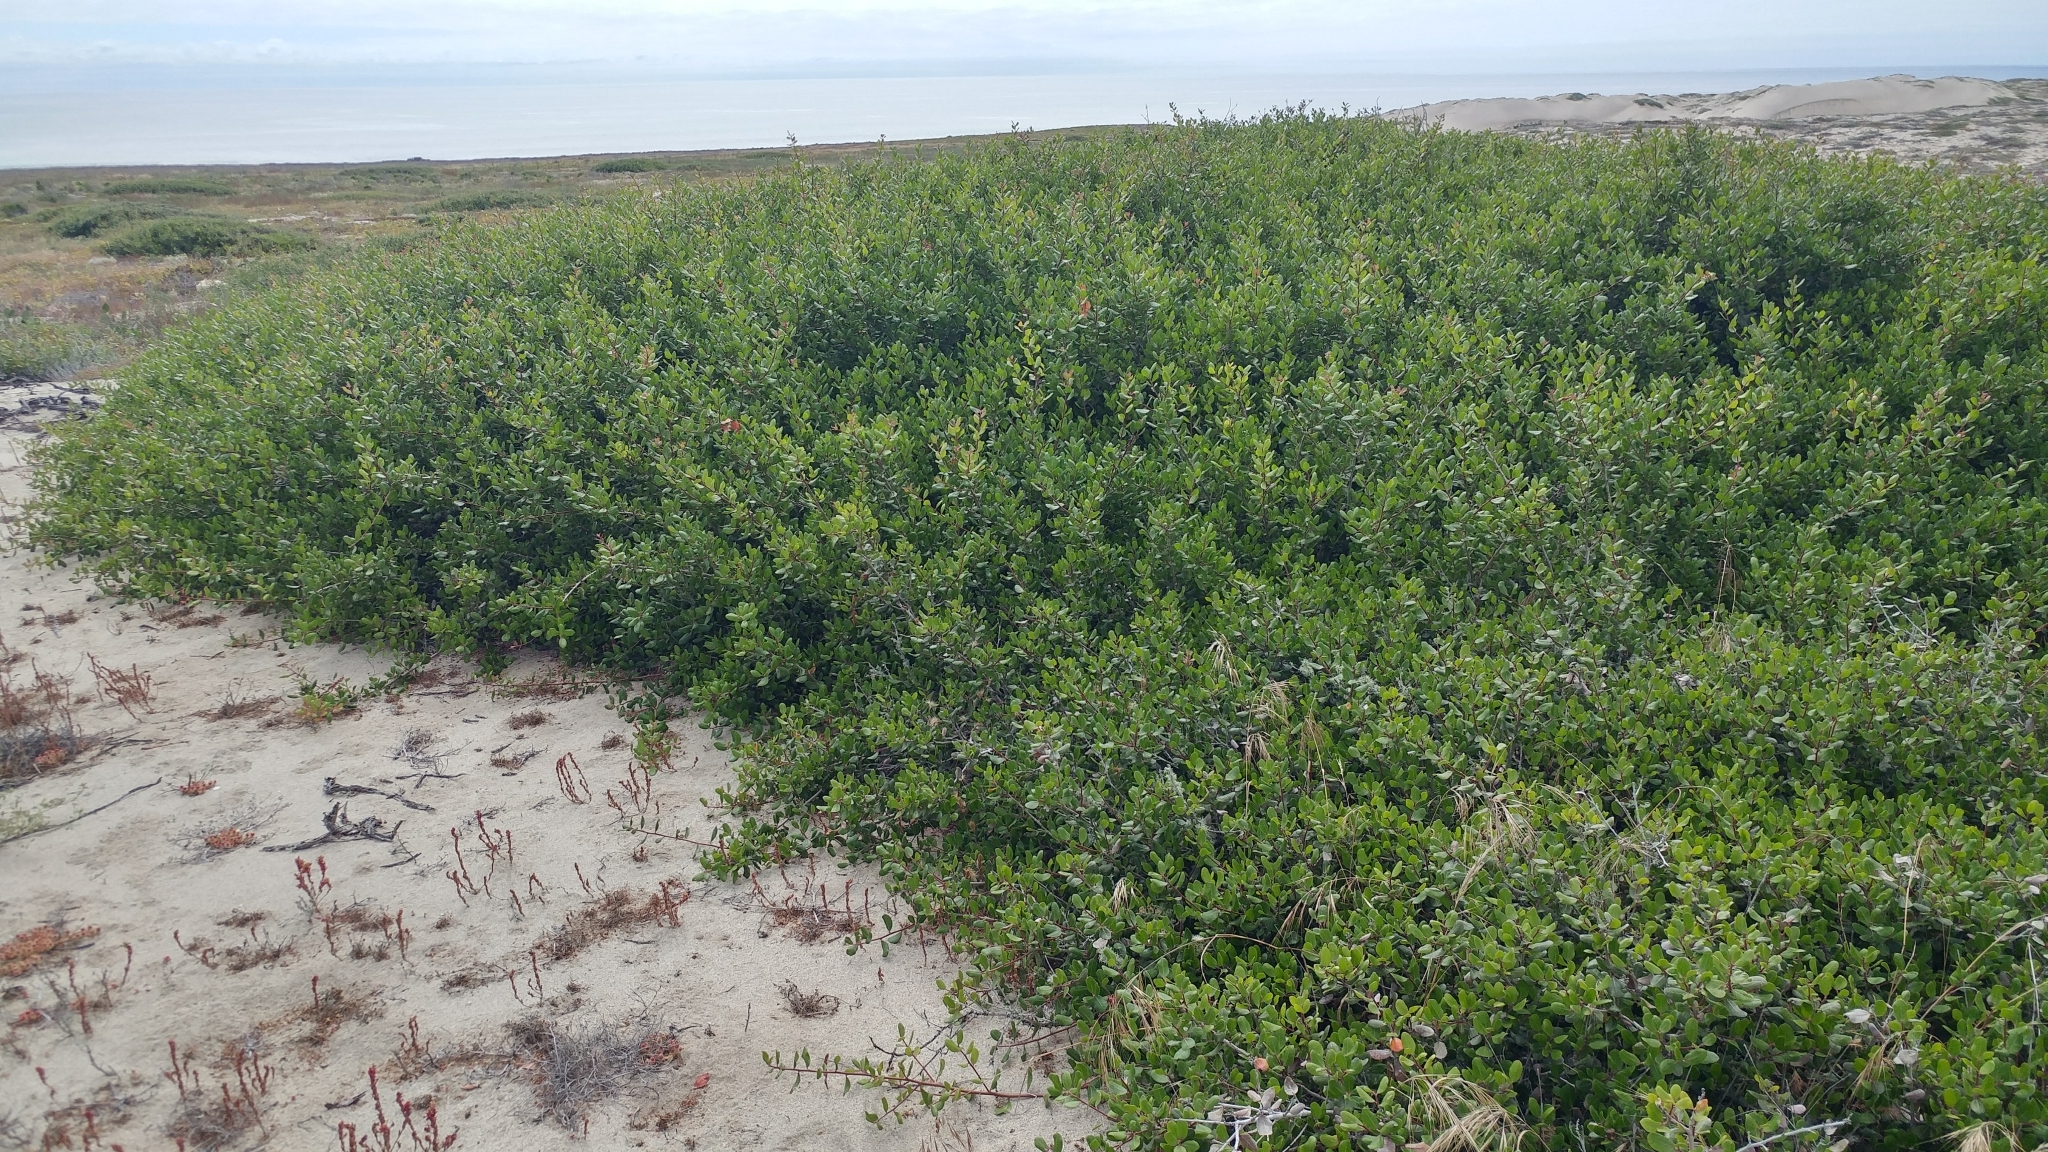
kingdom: Plantae
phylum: Tracheophyta
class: Magnoliopsida
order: Sapindales
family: Anacardiaceae
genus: Rhus
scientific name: Rhus integrifolia
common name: Lemonade sumac
